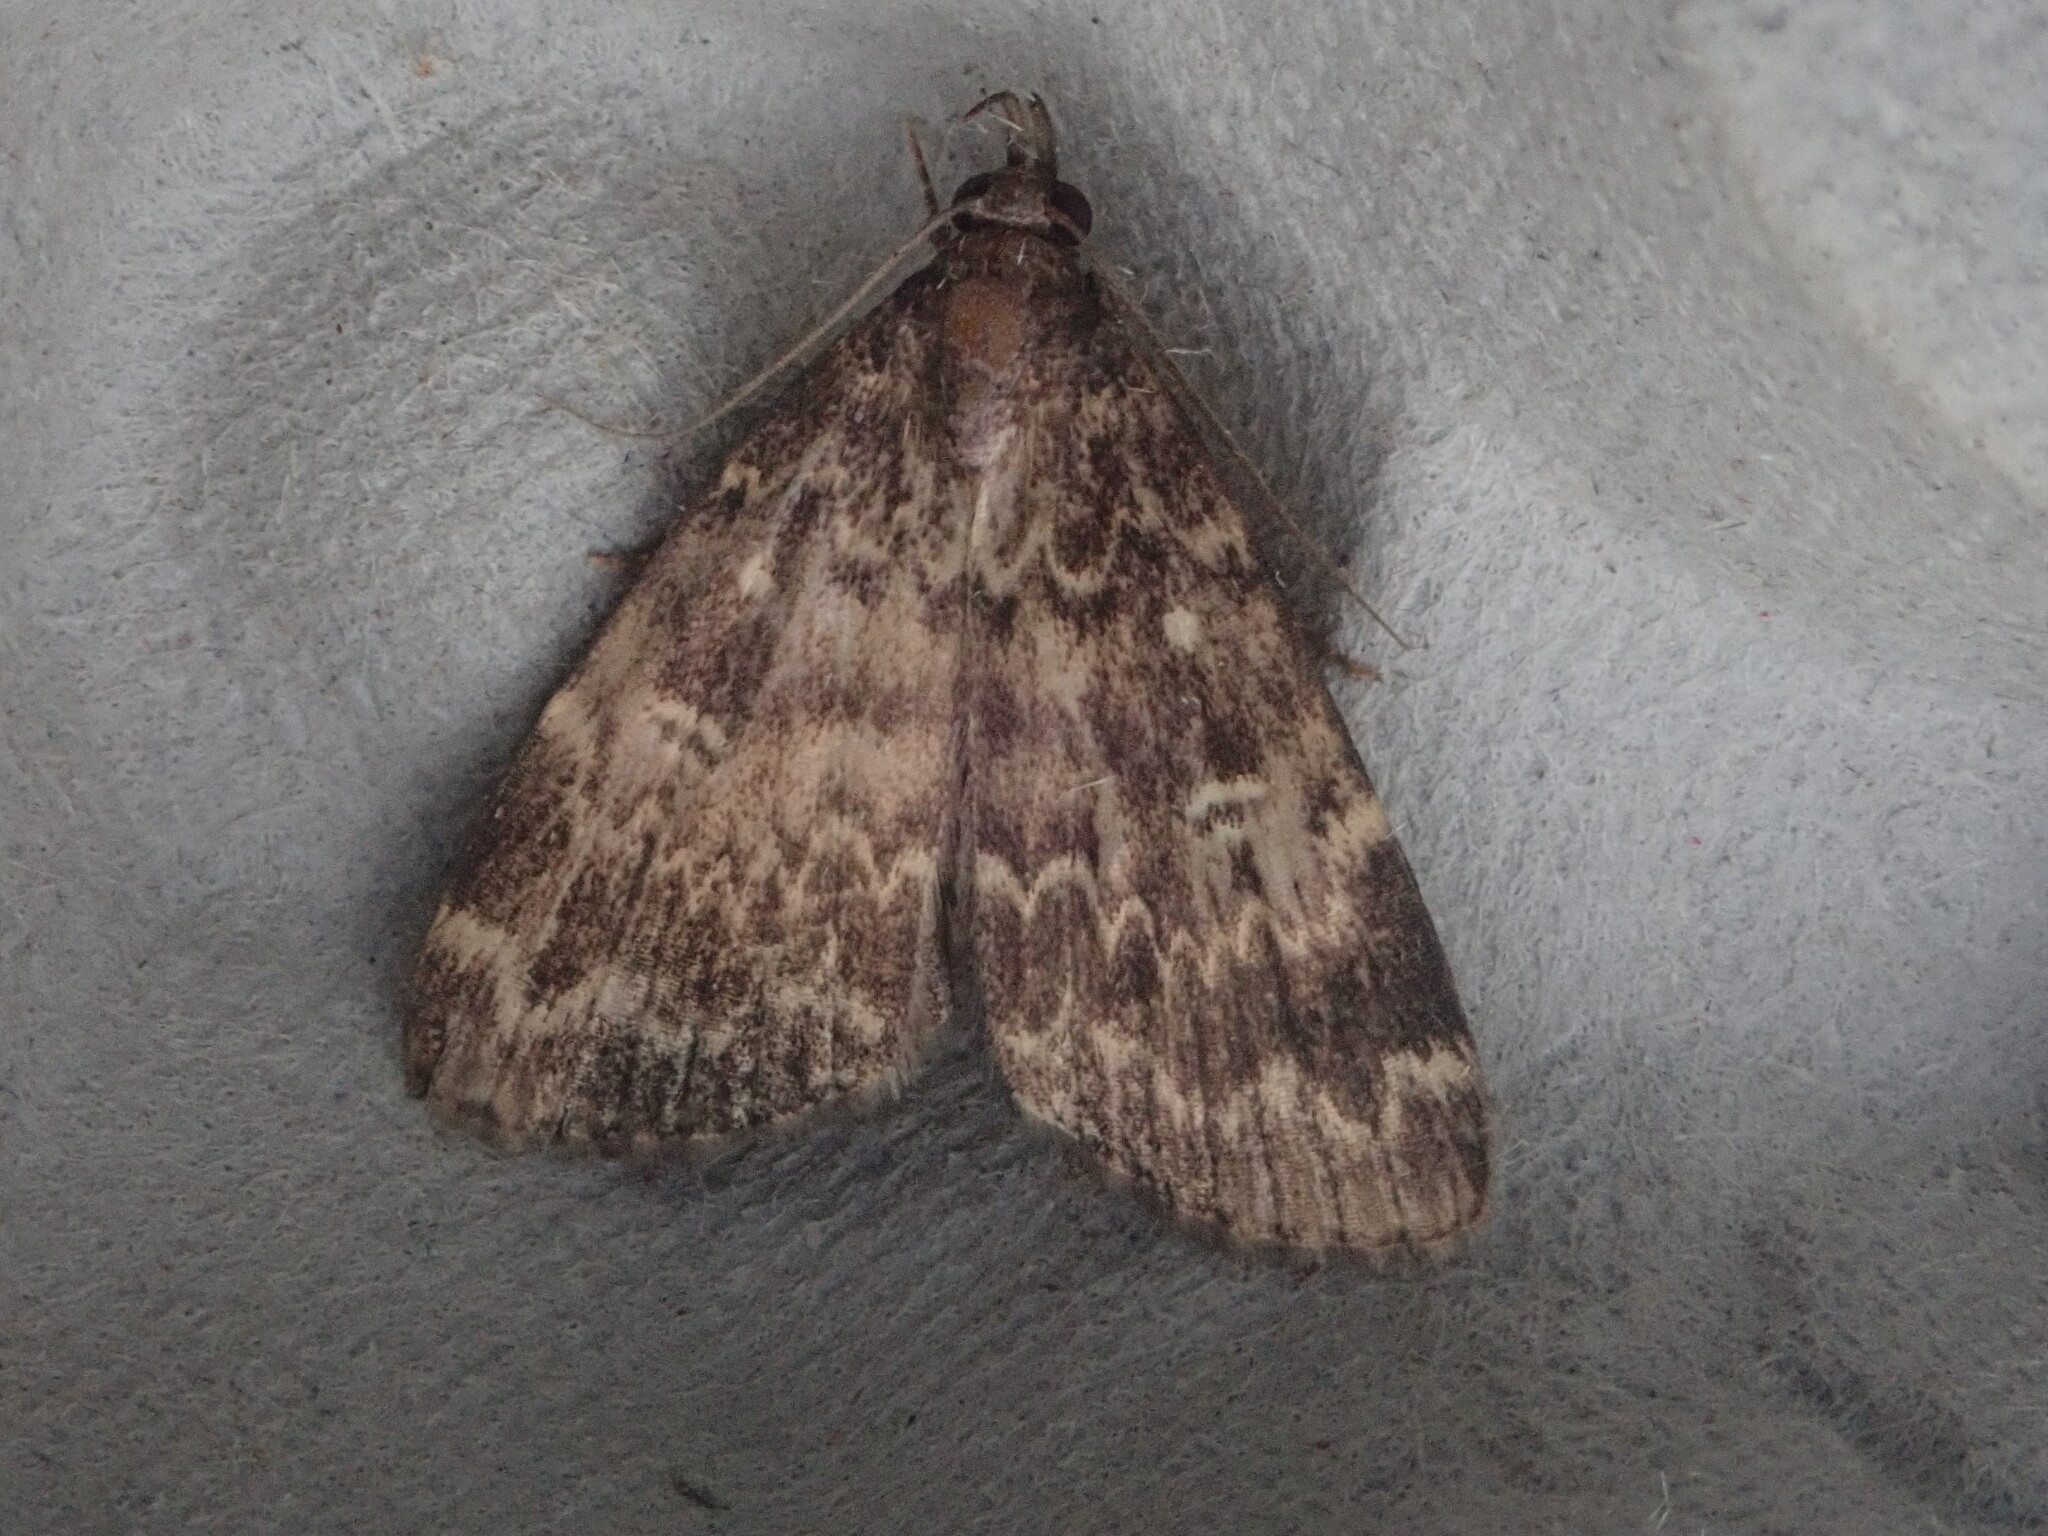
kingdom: Animalia
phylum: Arthropoda
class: Insecta
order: Lepidoptera
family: Erebidae
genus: Idia
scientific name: Idia lubricalis
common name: Twin-striped tabby
